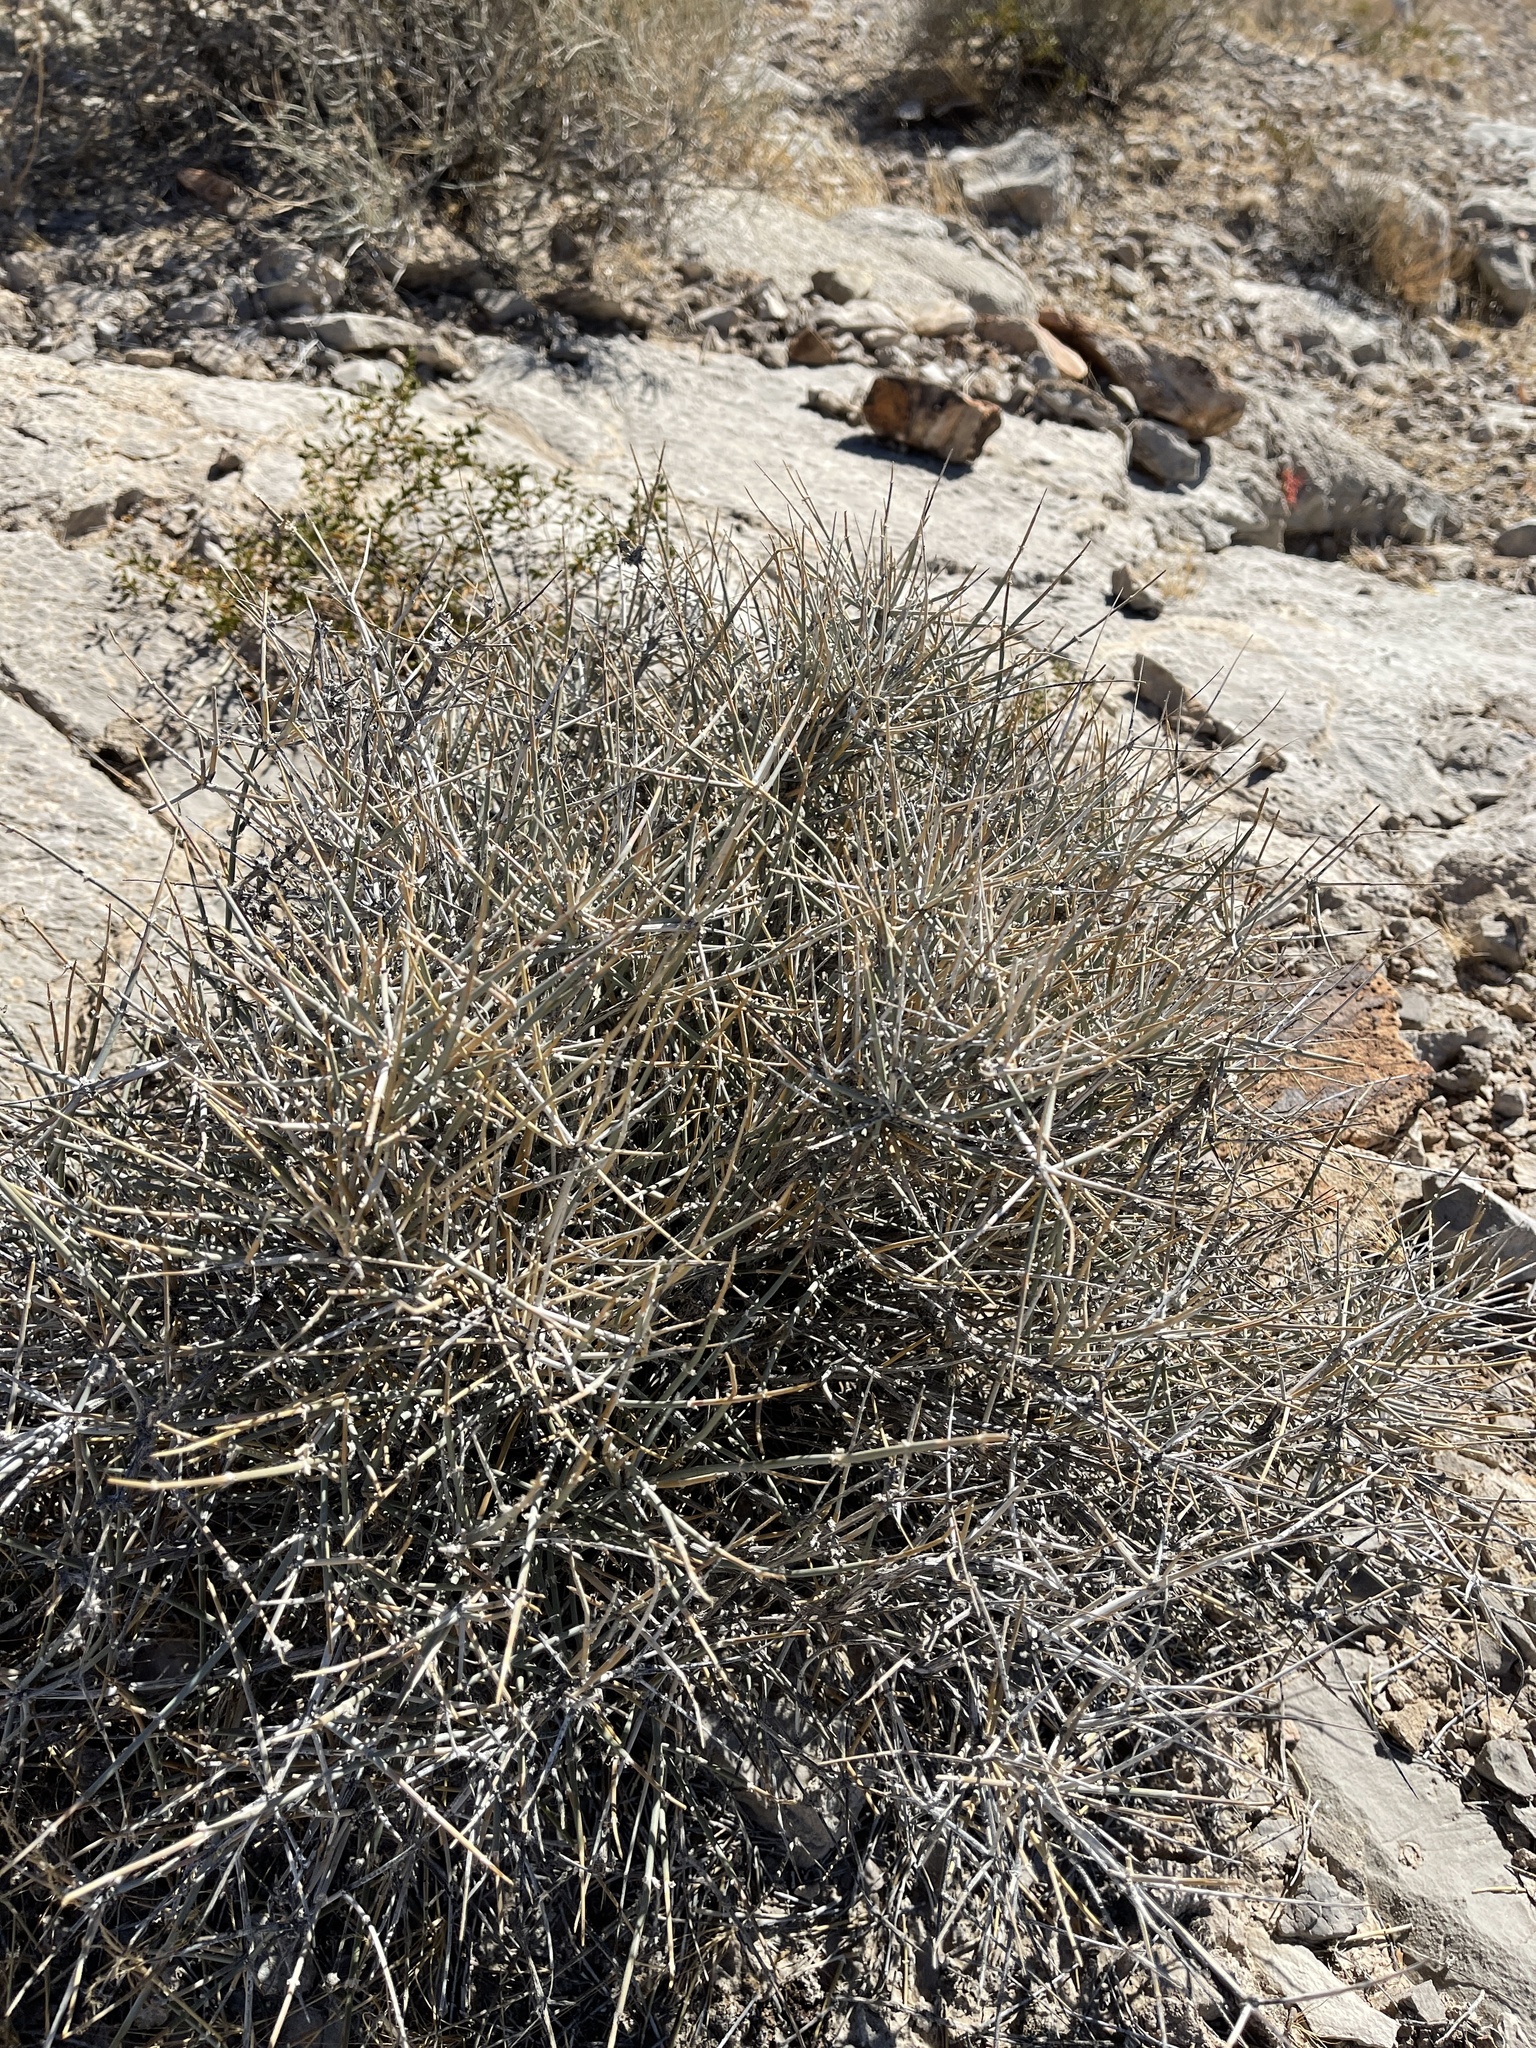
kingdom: Plantae
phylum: Tracheophyta
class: Gnetopsida
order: Ephedrales
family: Ephedraceae
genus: Ephedra
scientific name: Ephedra nevadensis
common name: Gray ephedra
